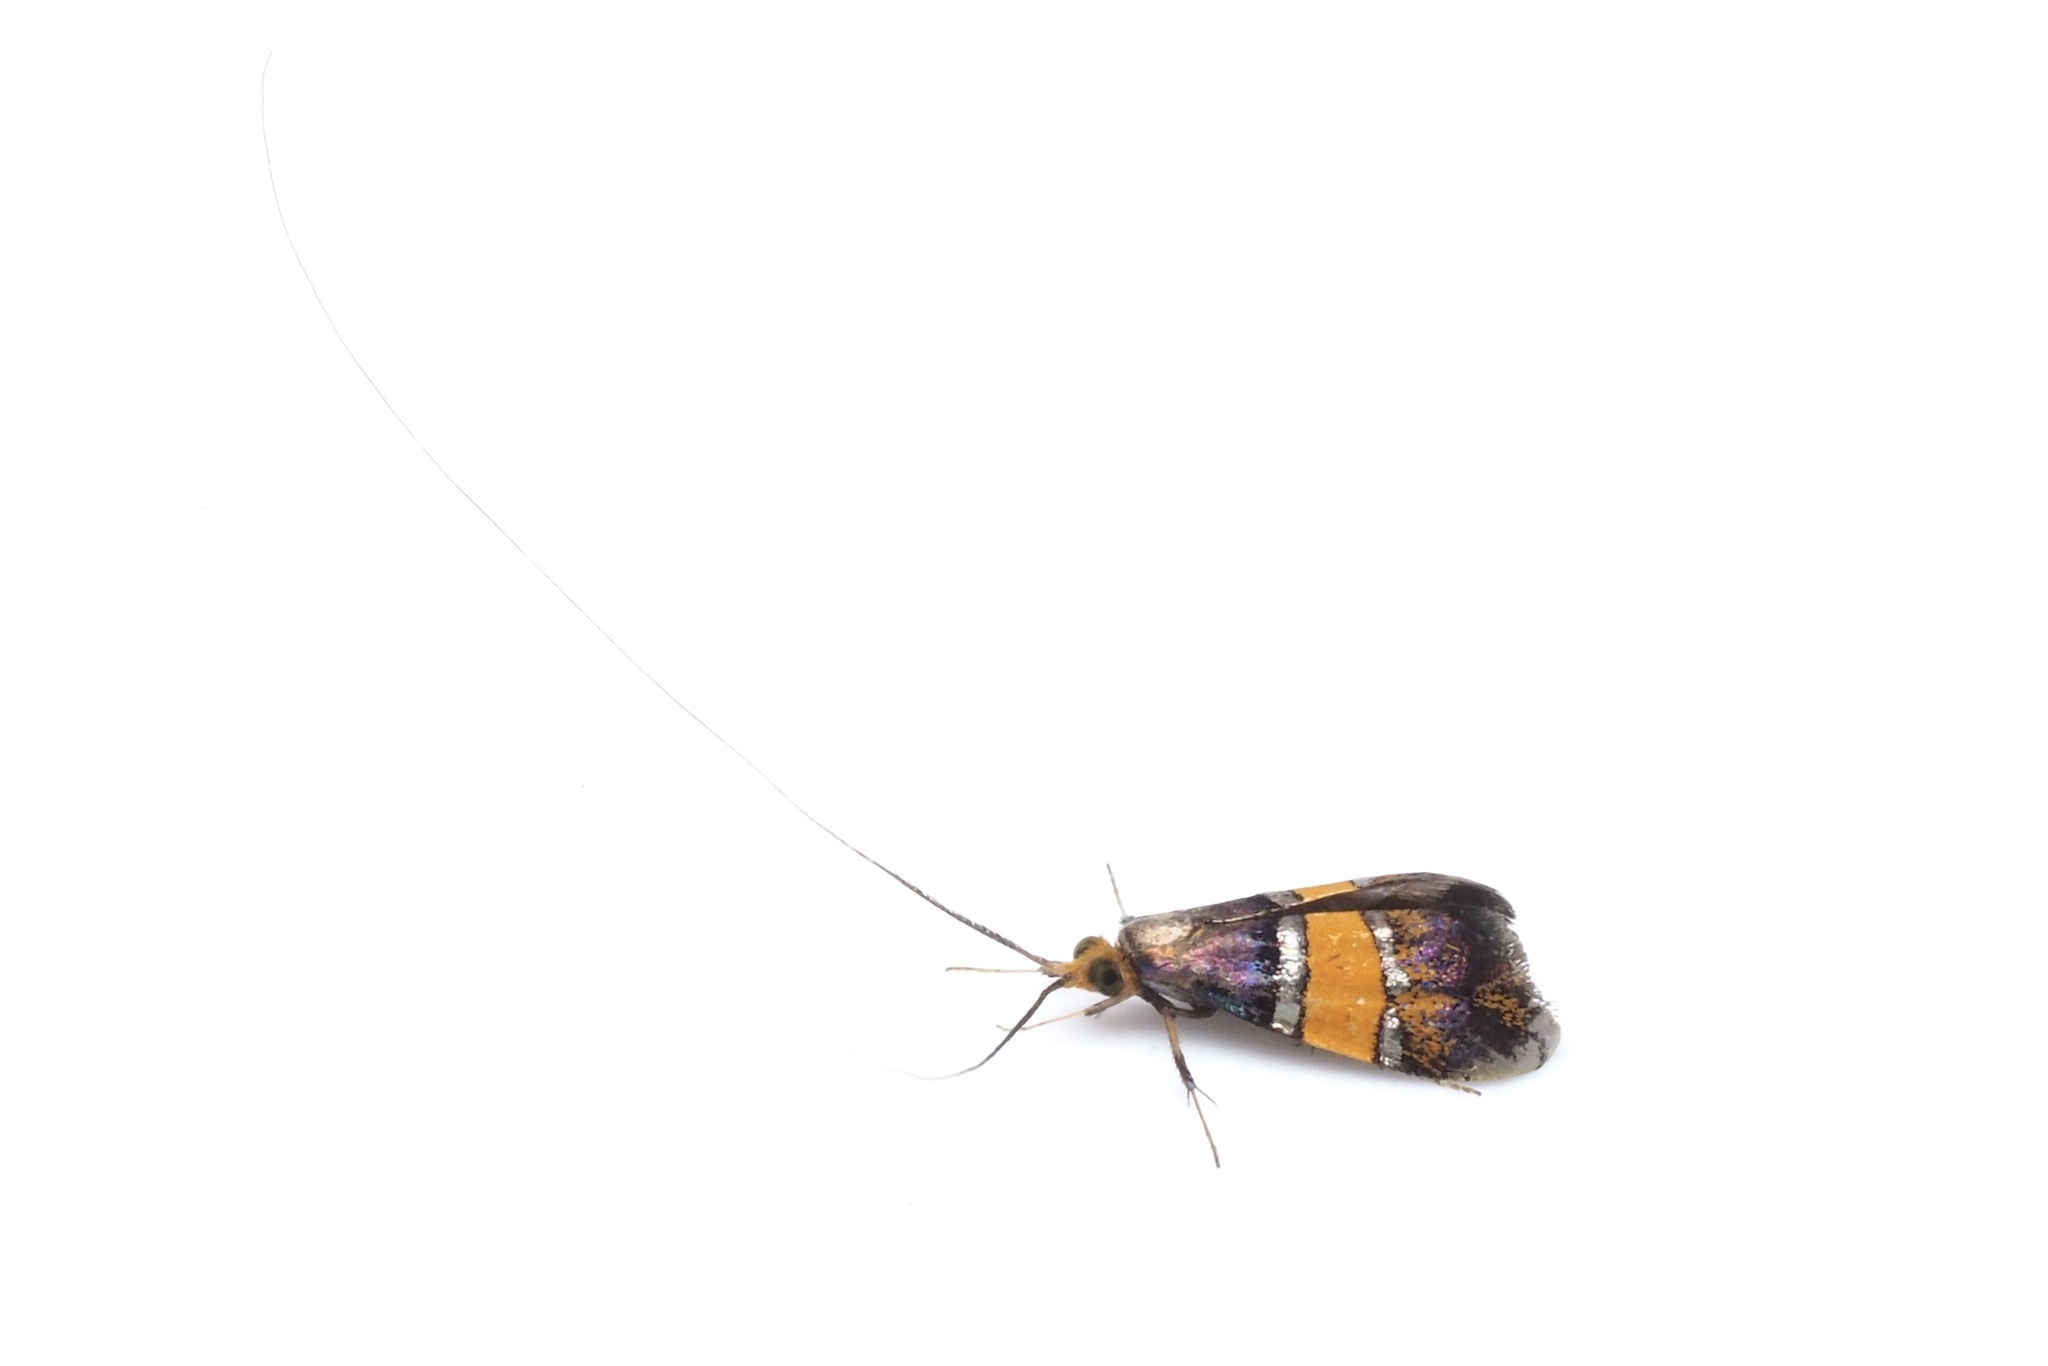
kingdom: Animalia
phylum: Arthropoda
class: Insecta
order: Lepidoptera
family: Adelidae
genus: Nemophora
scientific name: Nemophora paradisea
